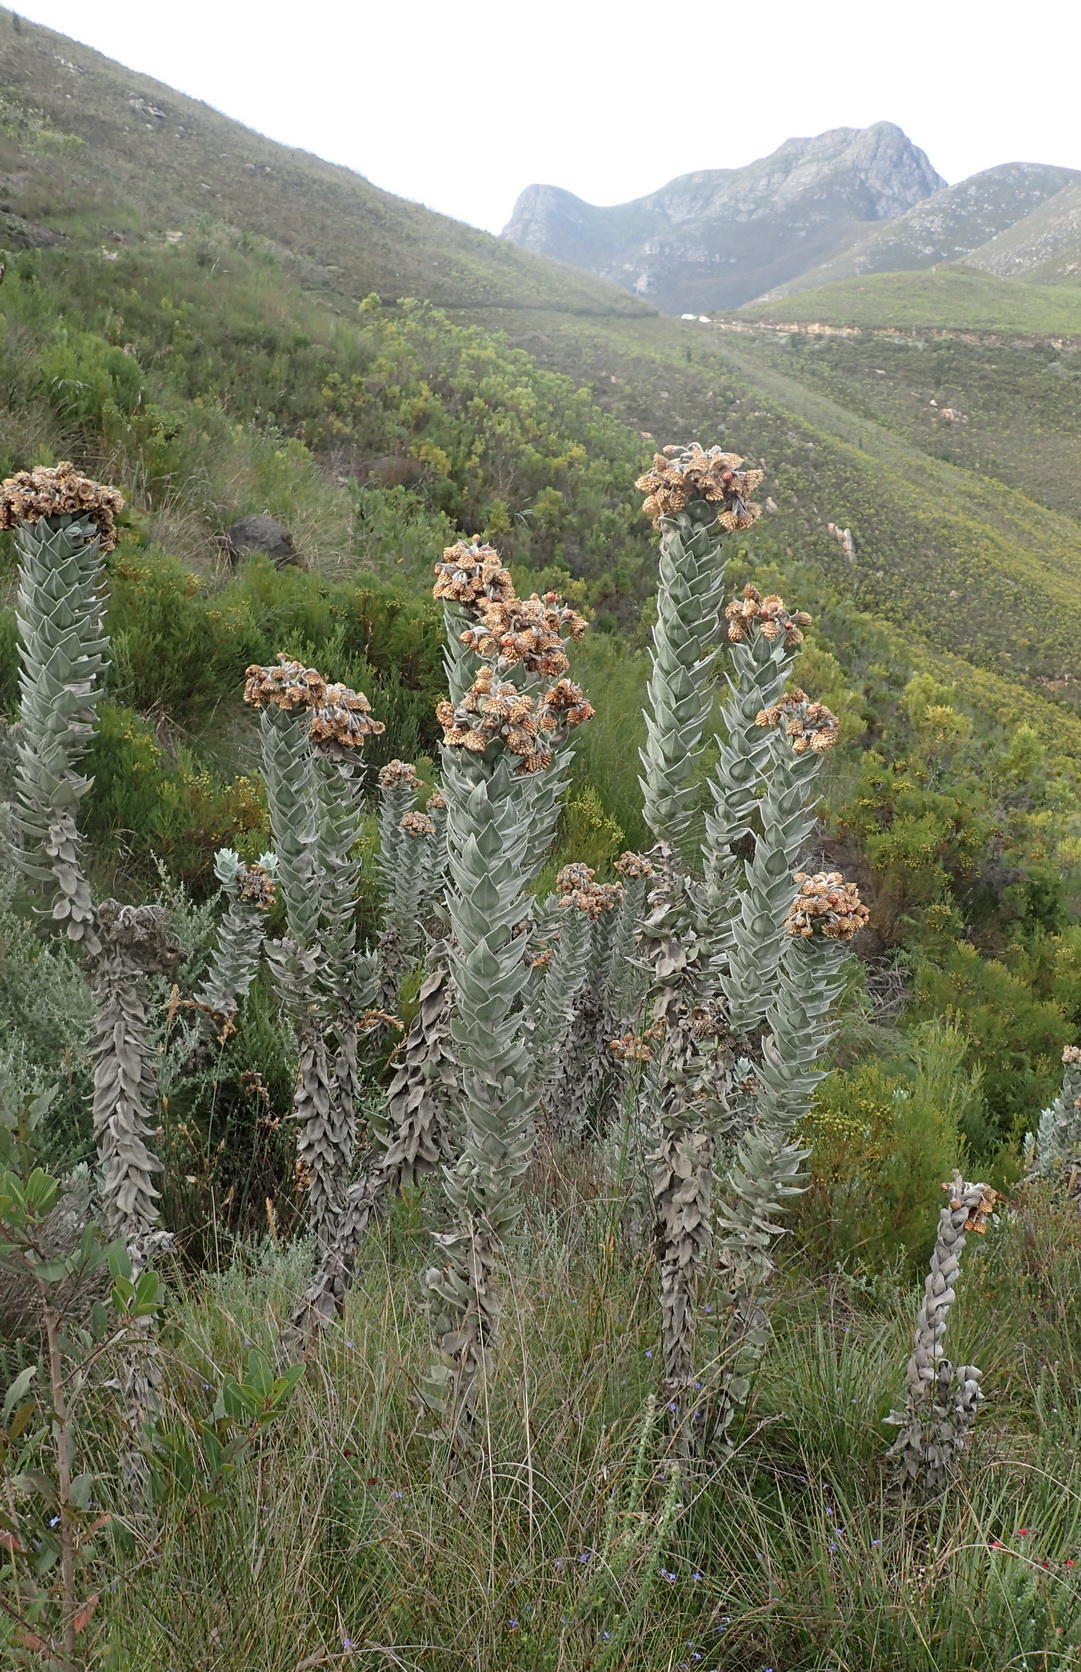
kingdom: Plantae
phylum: Tracheophyta
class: Magnoliopsida
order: Asterales
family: Asteraceae
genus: Syncarpha
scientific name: Syncarpha eximia
